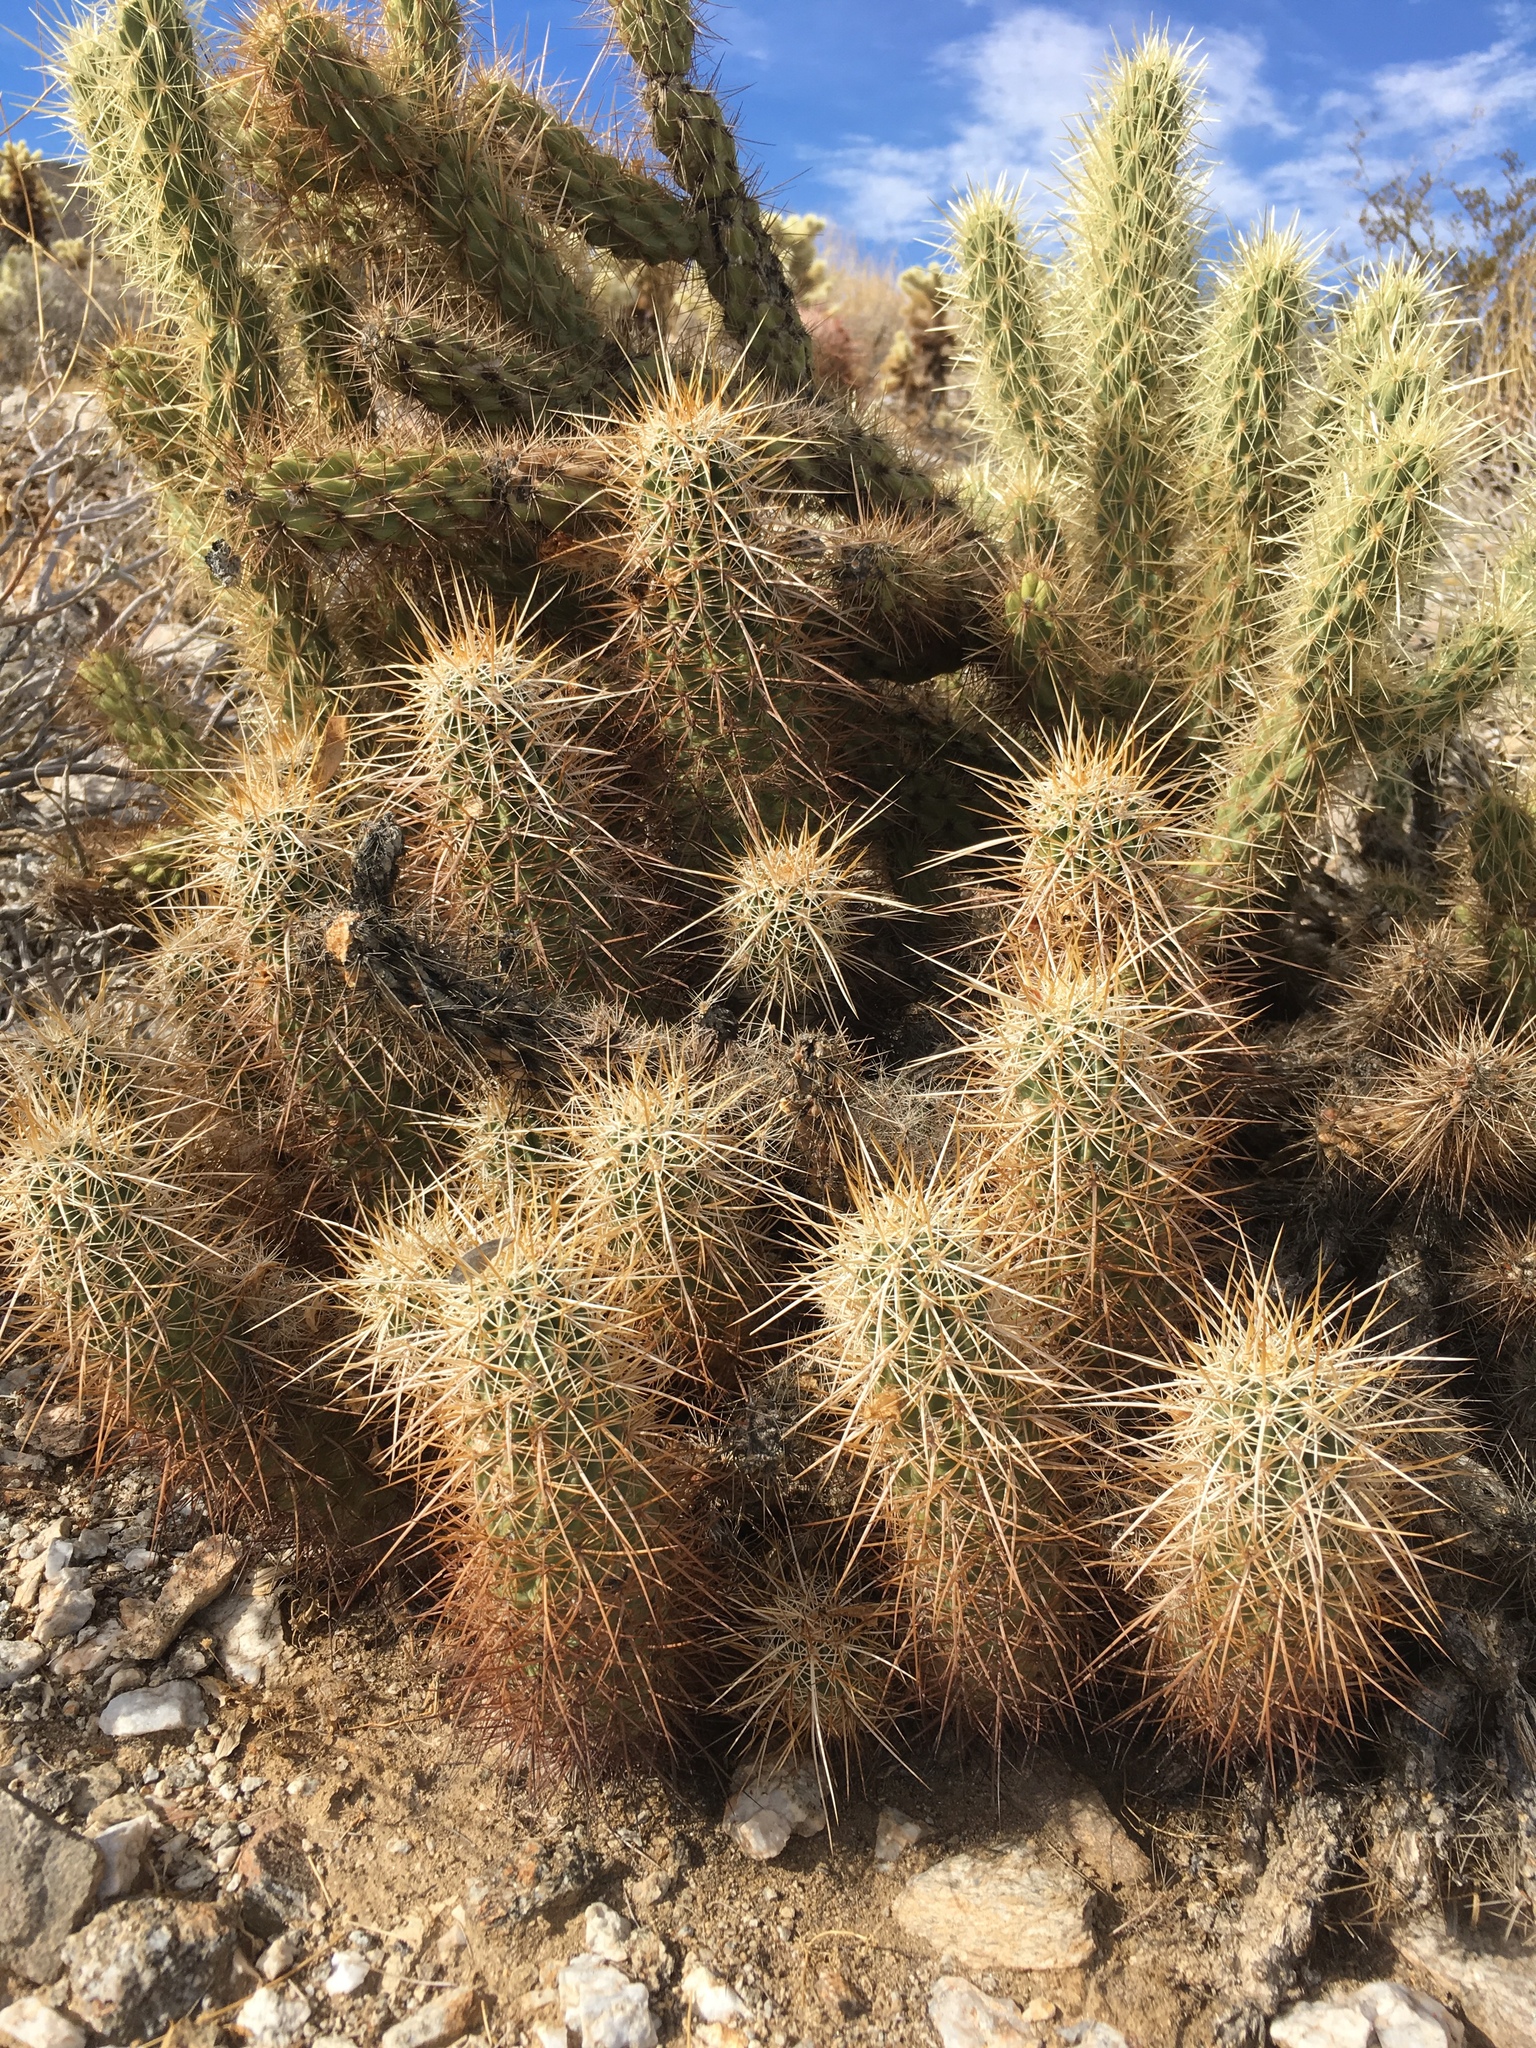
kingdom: Plantae
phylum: Tracheophyta
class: Magnoliopsida
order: Caryophyllales
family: Cactaceae
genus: Echinocereus
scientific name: Echinocereus engelmannii
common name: Engelmann's hedgehog cactus
